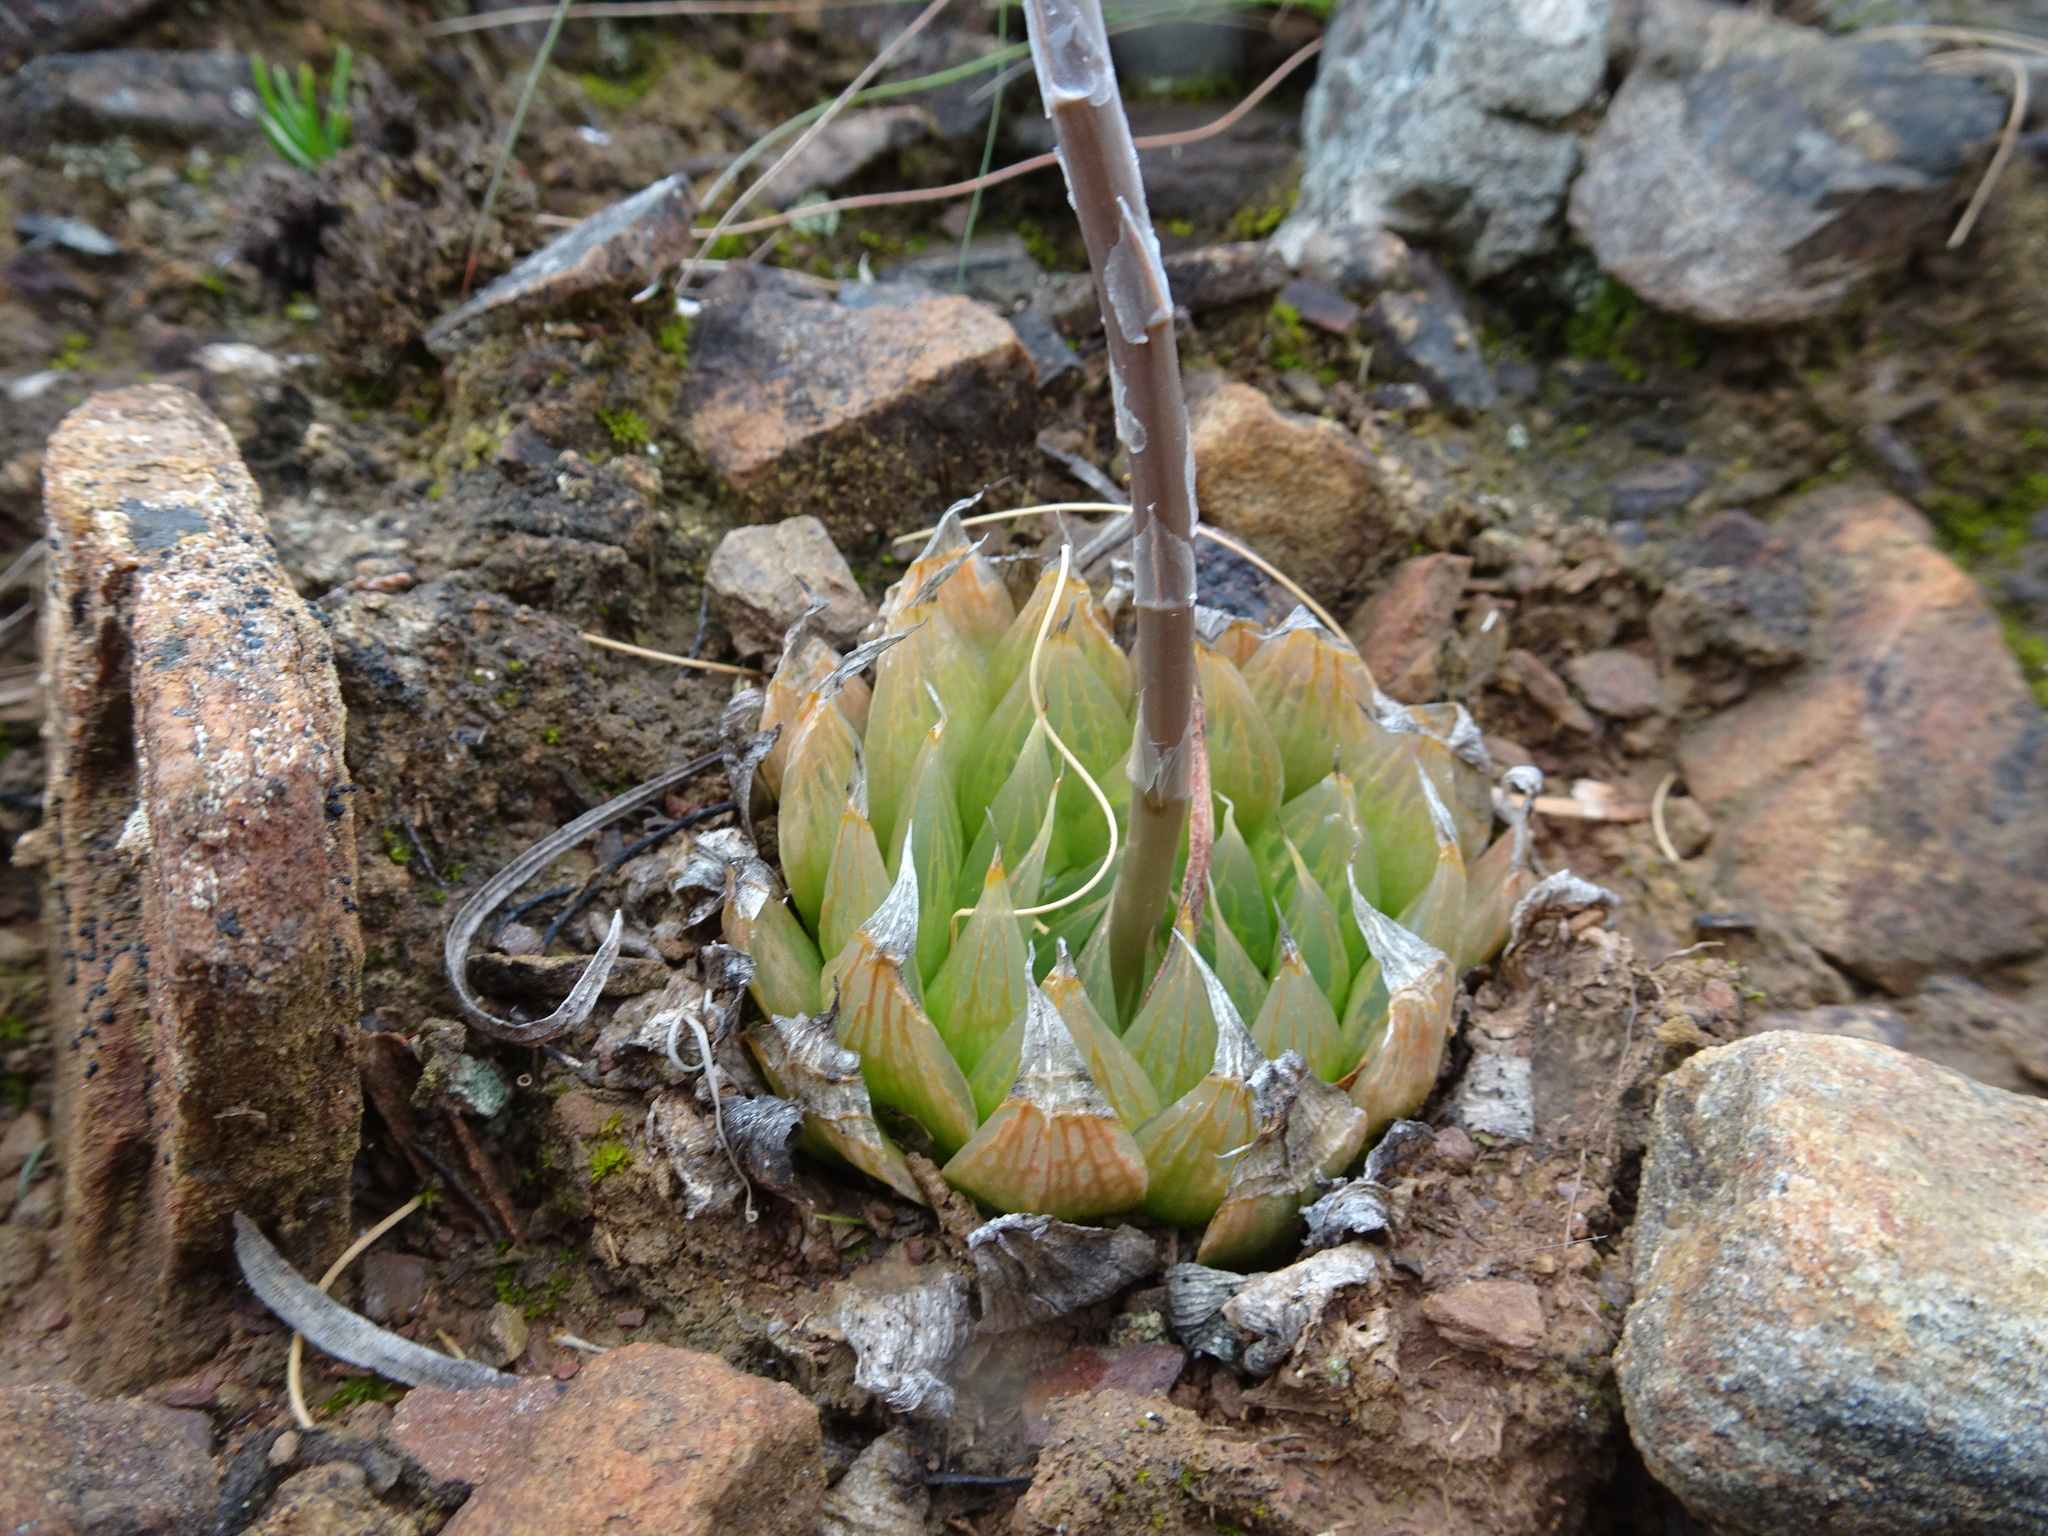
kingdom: Plantae
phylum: Tracheophyta
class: Liliopsida
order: Asparagales
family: Asphodelaceae
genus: Haworthia
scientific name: Haworthia mucronata
